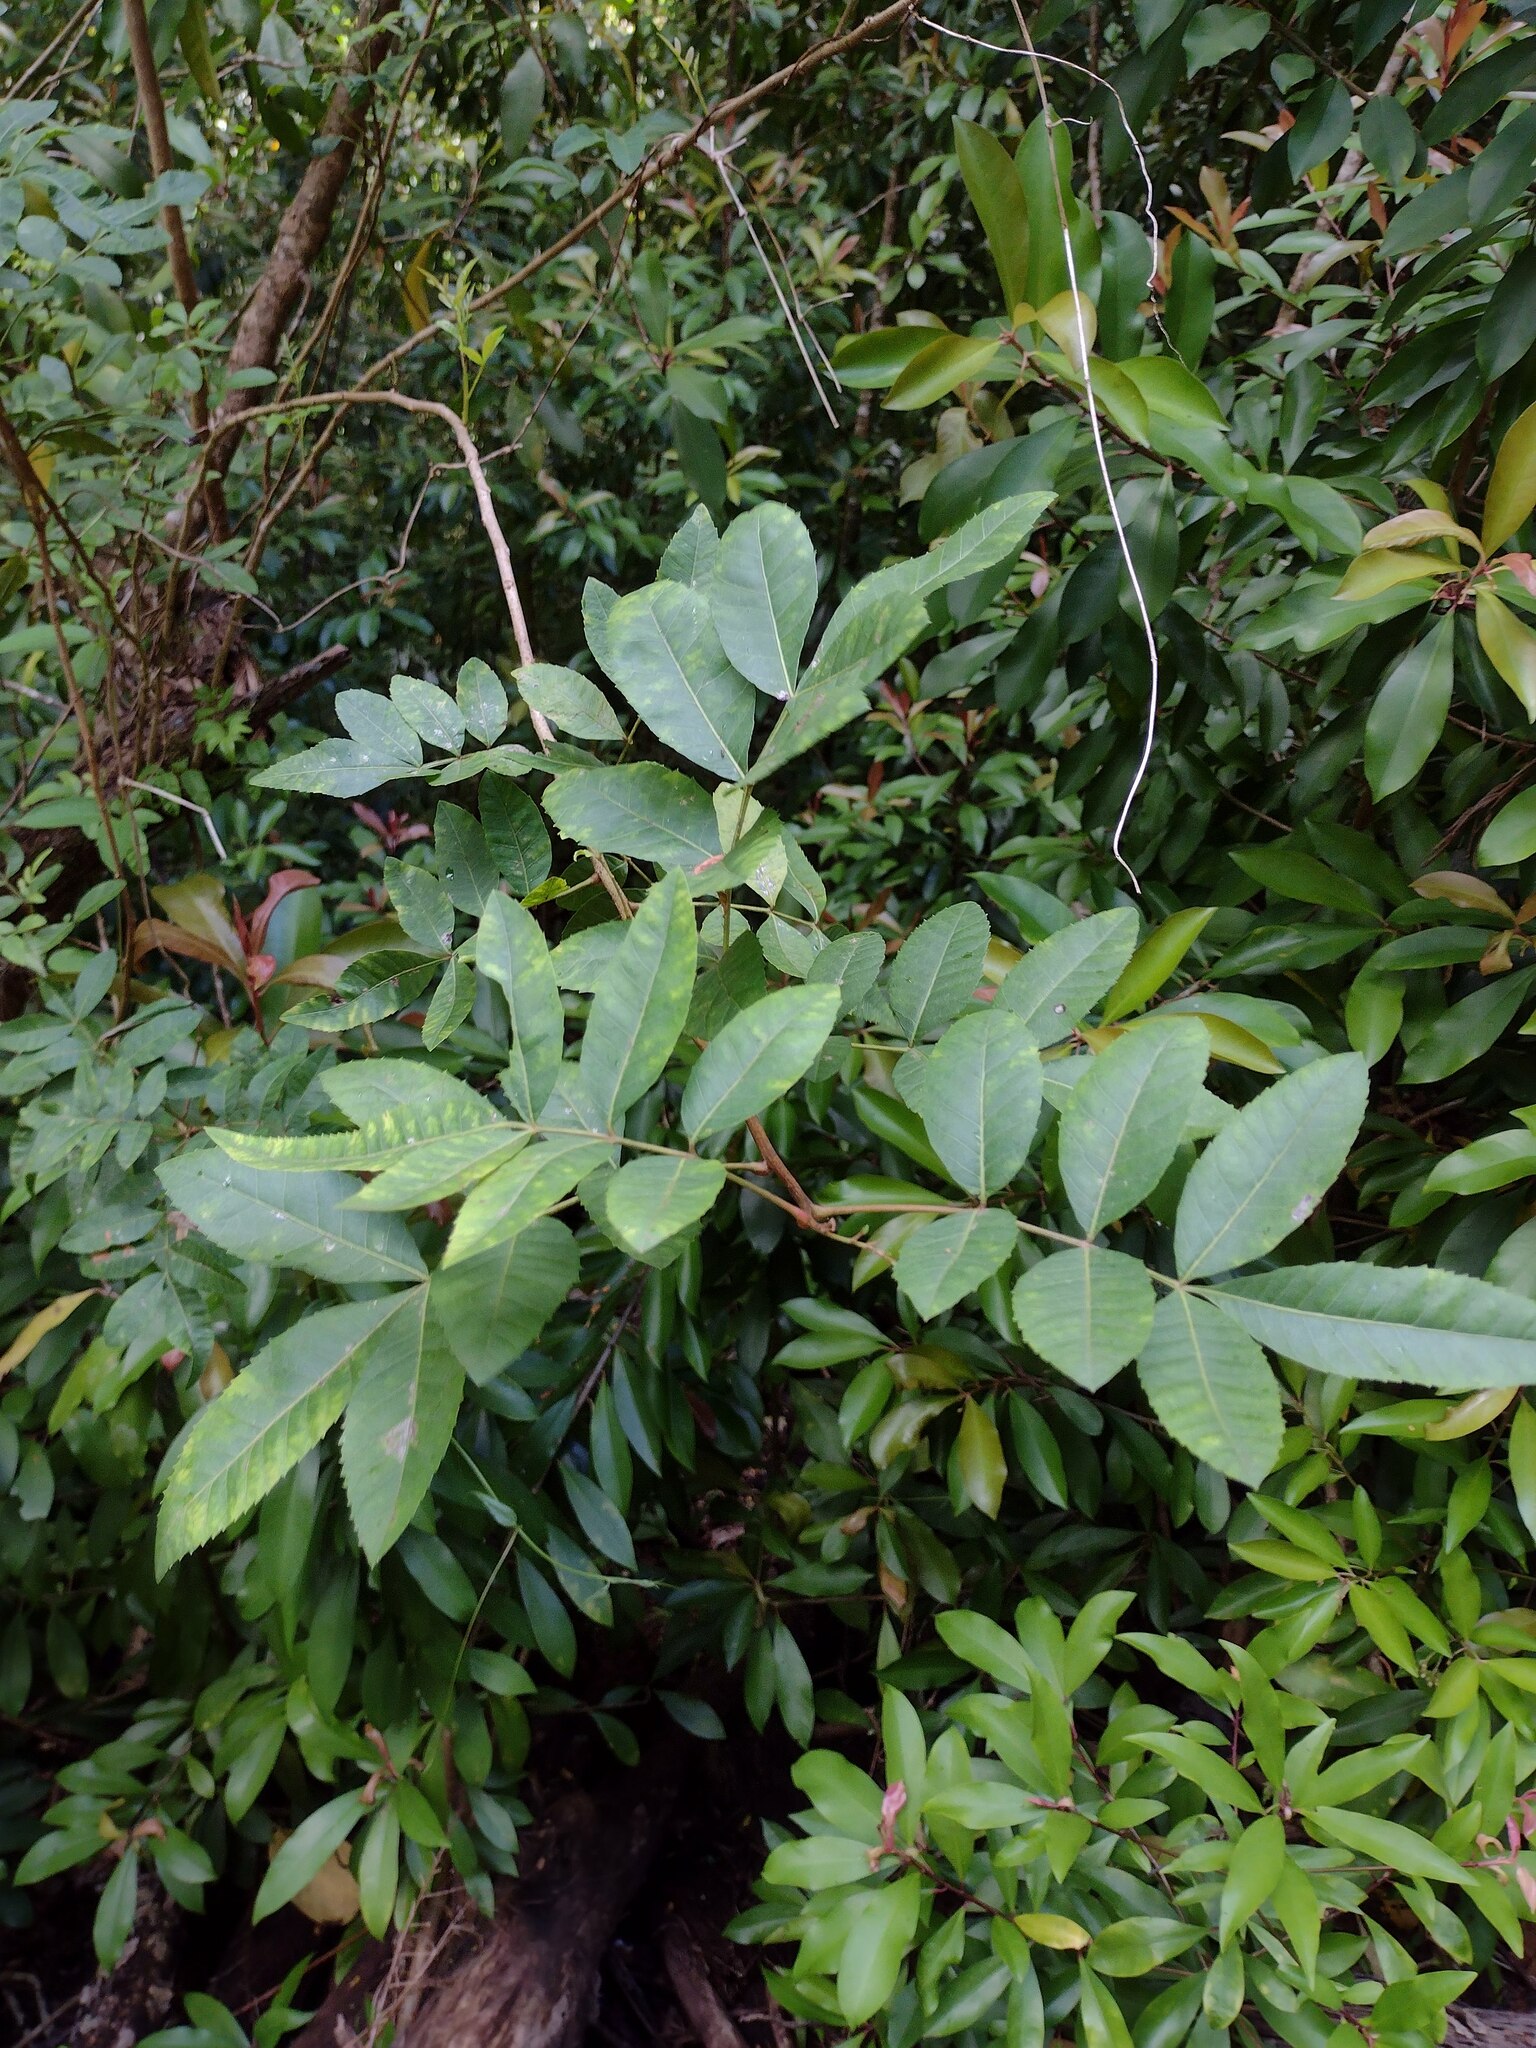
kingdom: Plantae
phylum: Tracheophyta
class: Magnoliopsida
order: Sapindales
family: Anacardiaceae
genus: Schinus
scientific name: Schinus terebinthifolia
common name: Brazilian peppertree
